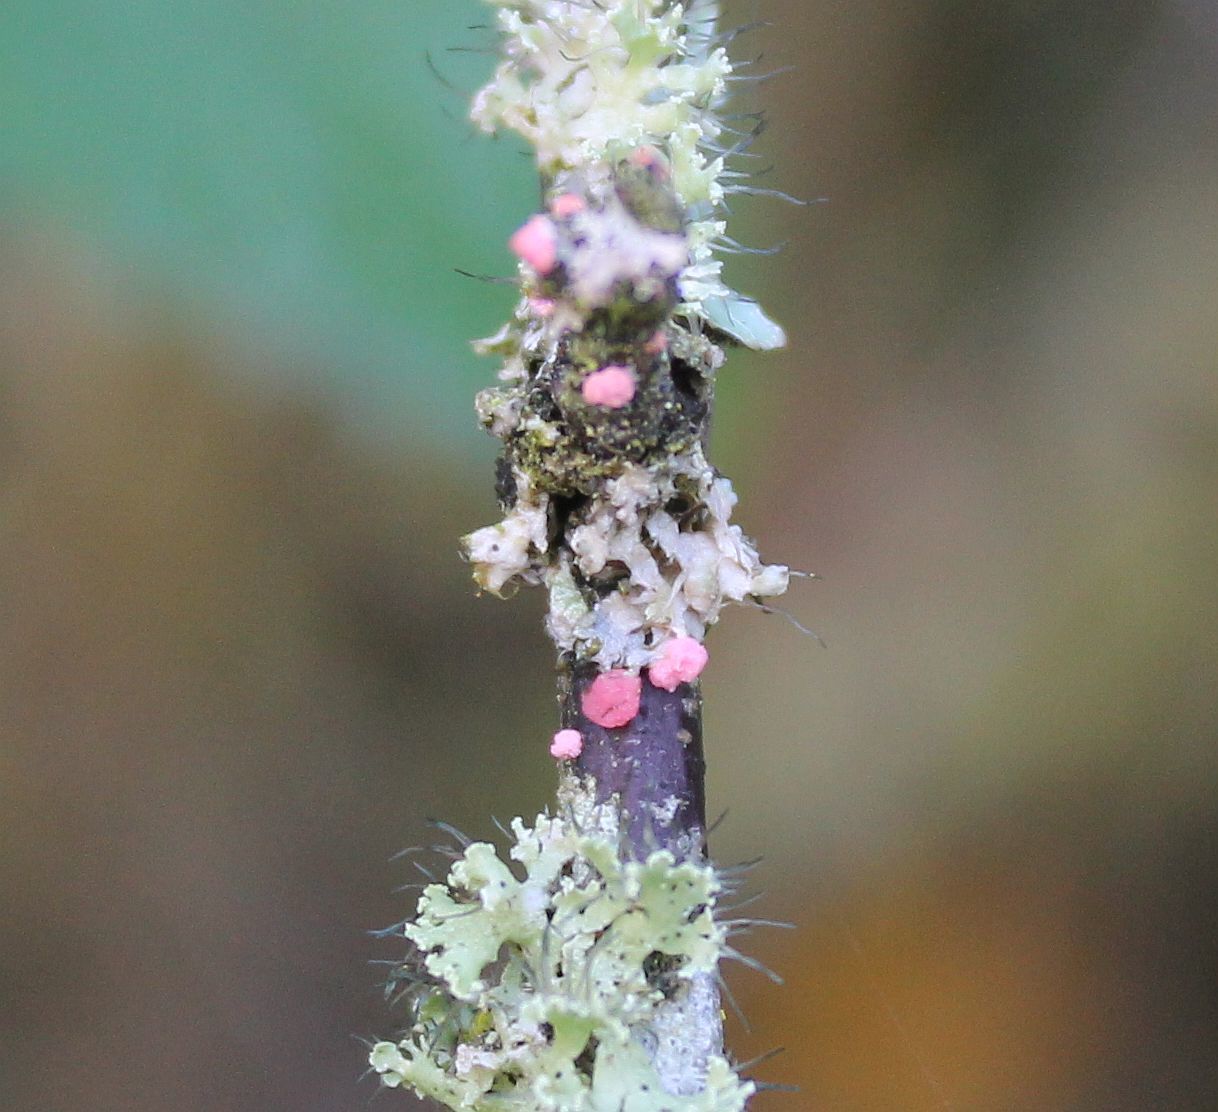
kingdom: Fungi
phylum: Ascomycota
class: Sordariomycetes
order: Hypocreales
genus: Illosporiopsis
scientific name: Illosporiopsis christiansenii
